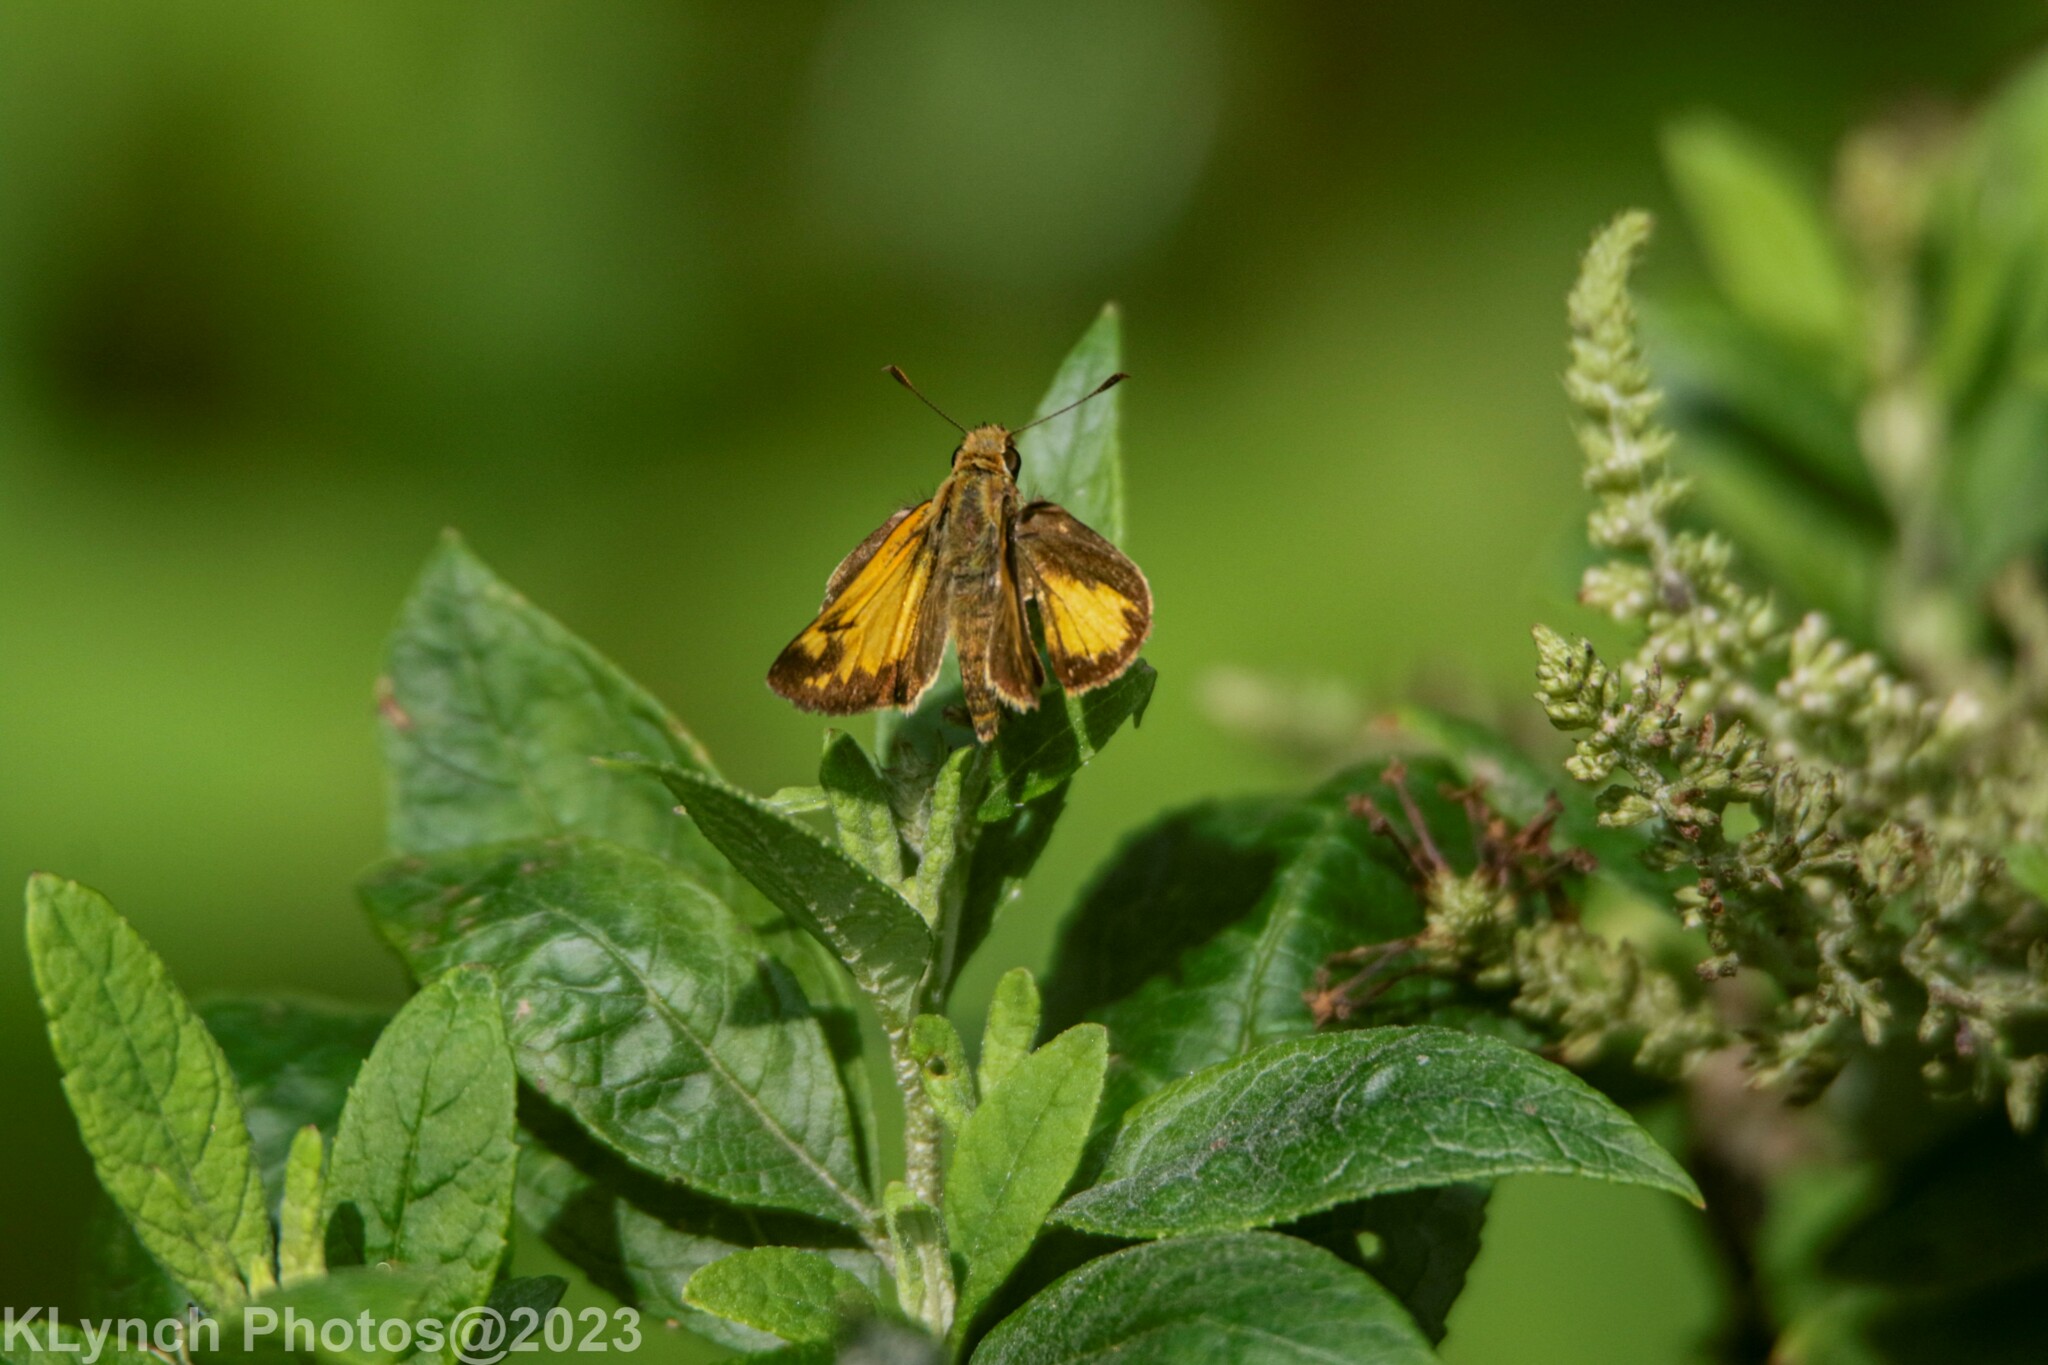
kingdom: Animalia
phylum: Arthropoda
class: Insecta
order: Lepidoptera
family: Hesperiidae
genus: Lon
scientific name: Lon zabulon
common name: Zabulon skipper
